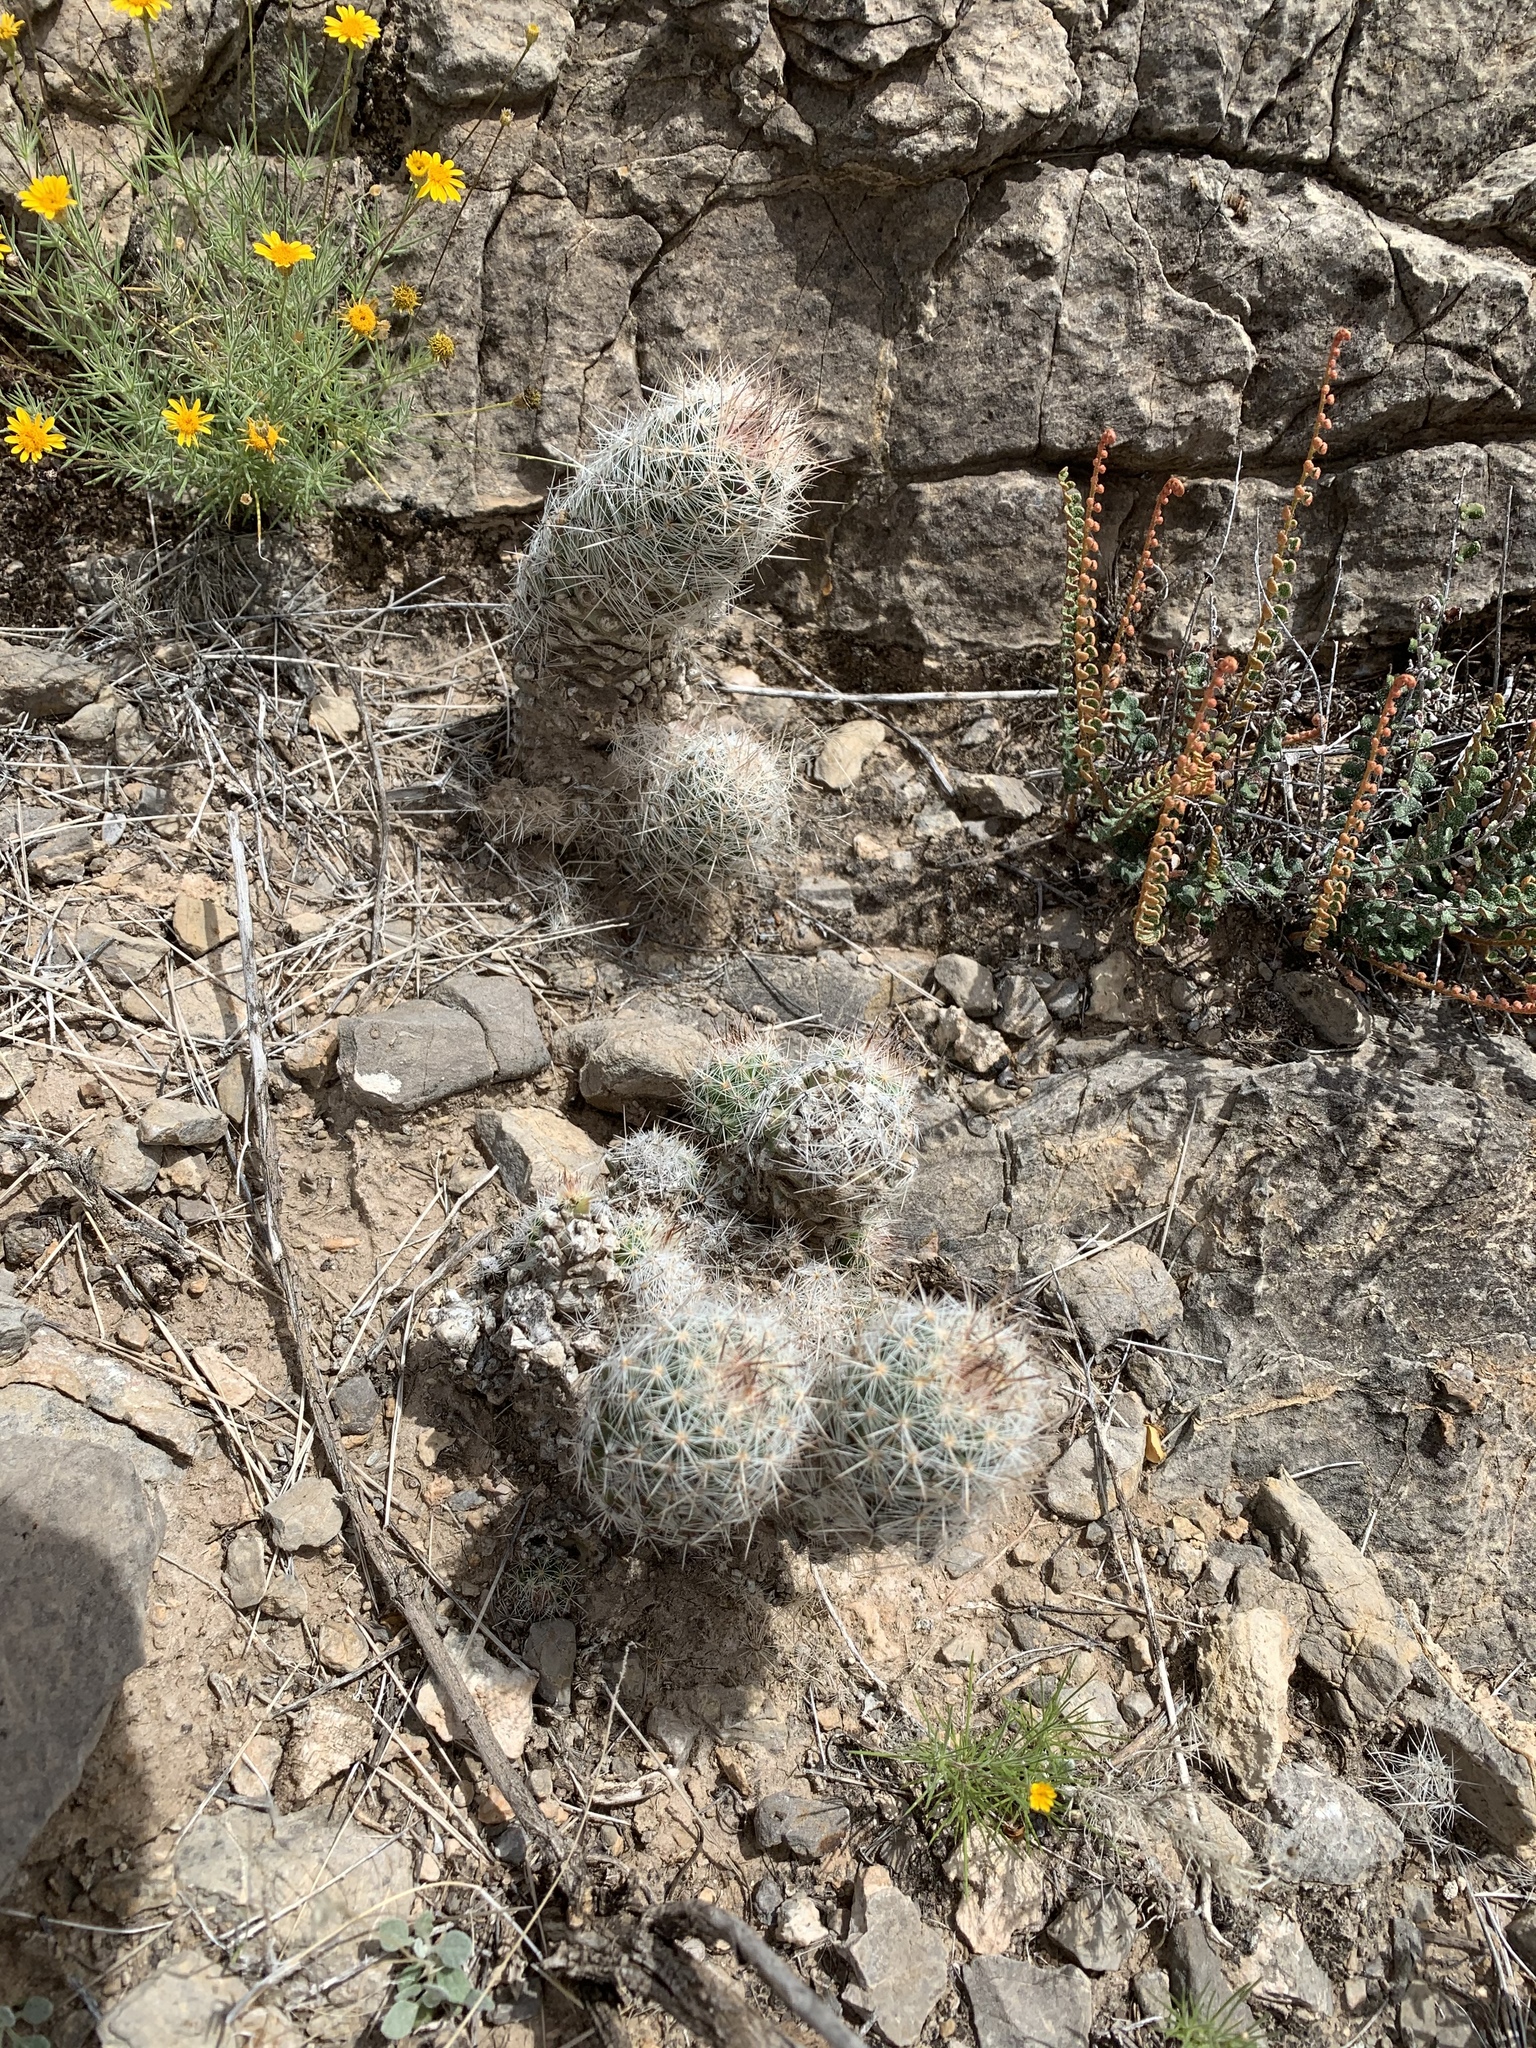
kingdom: Plantae
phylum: Tracheophyta
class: Magnoliopsida
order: Caryophyllales
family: Cactaceae
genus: Pelecyphora
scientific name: Pelecyphora tuberculosa
